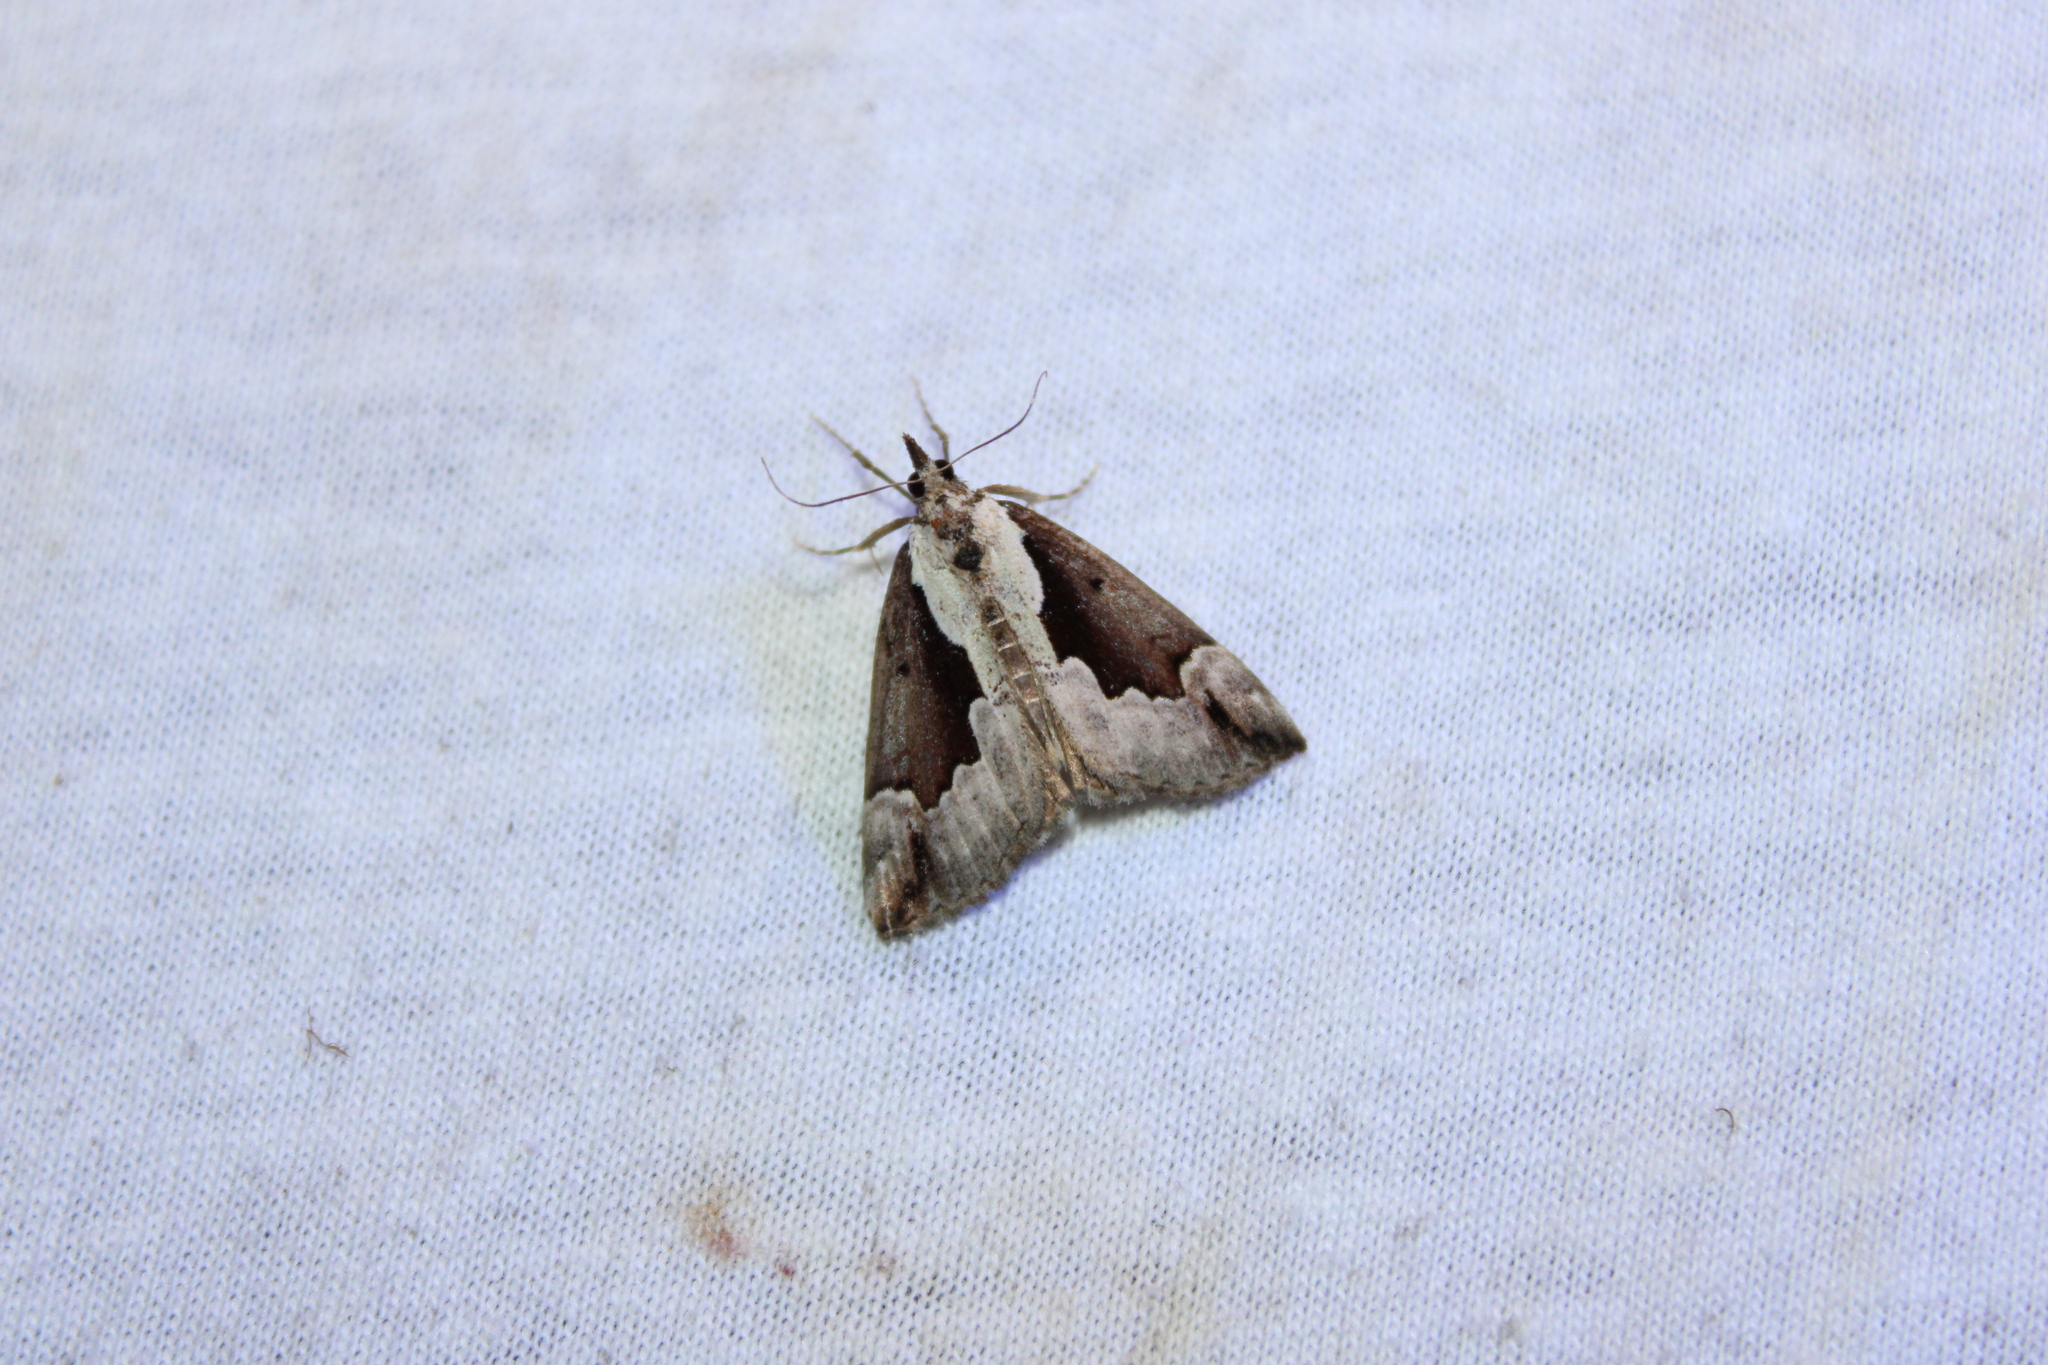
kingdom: Animalia
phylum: Arthropoda
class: Insecta
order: Lepidoptera
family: Erebidae
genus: Hypena
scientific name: Hypena baltimoralis
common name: Baltimore snout
